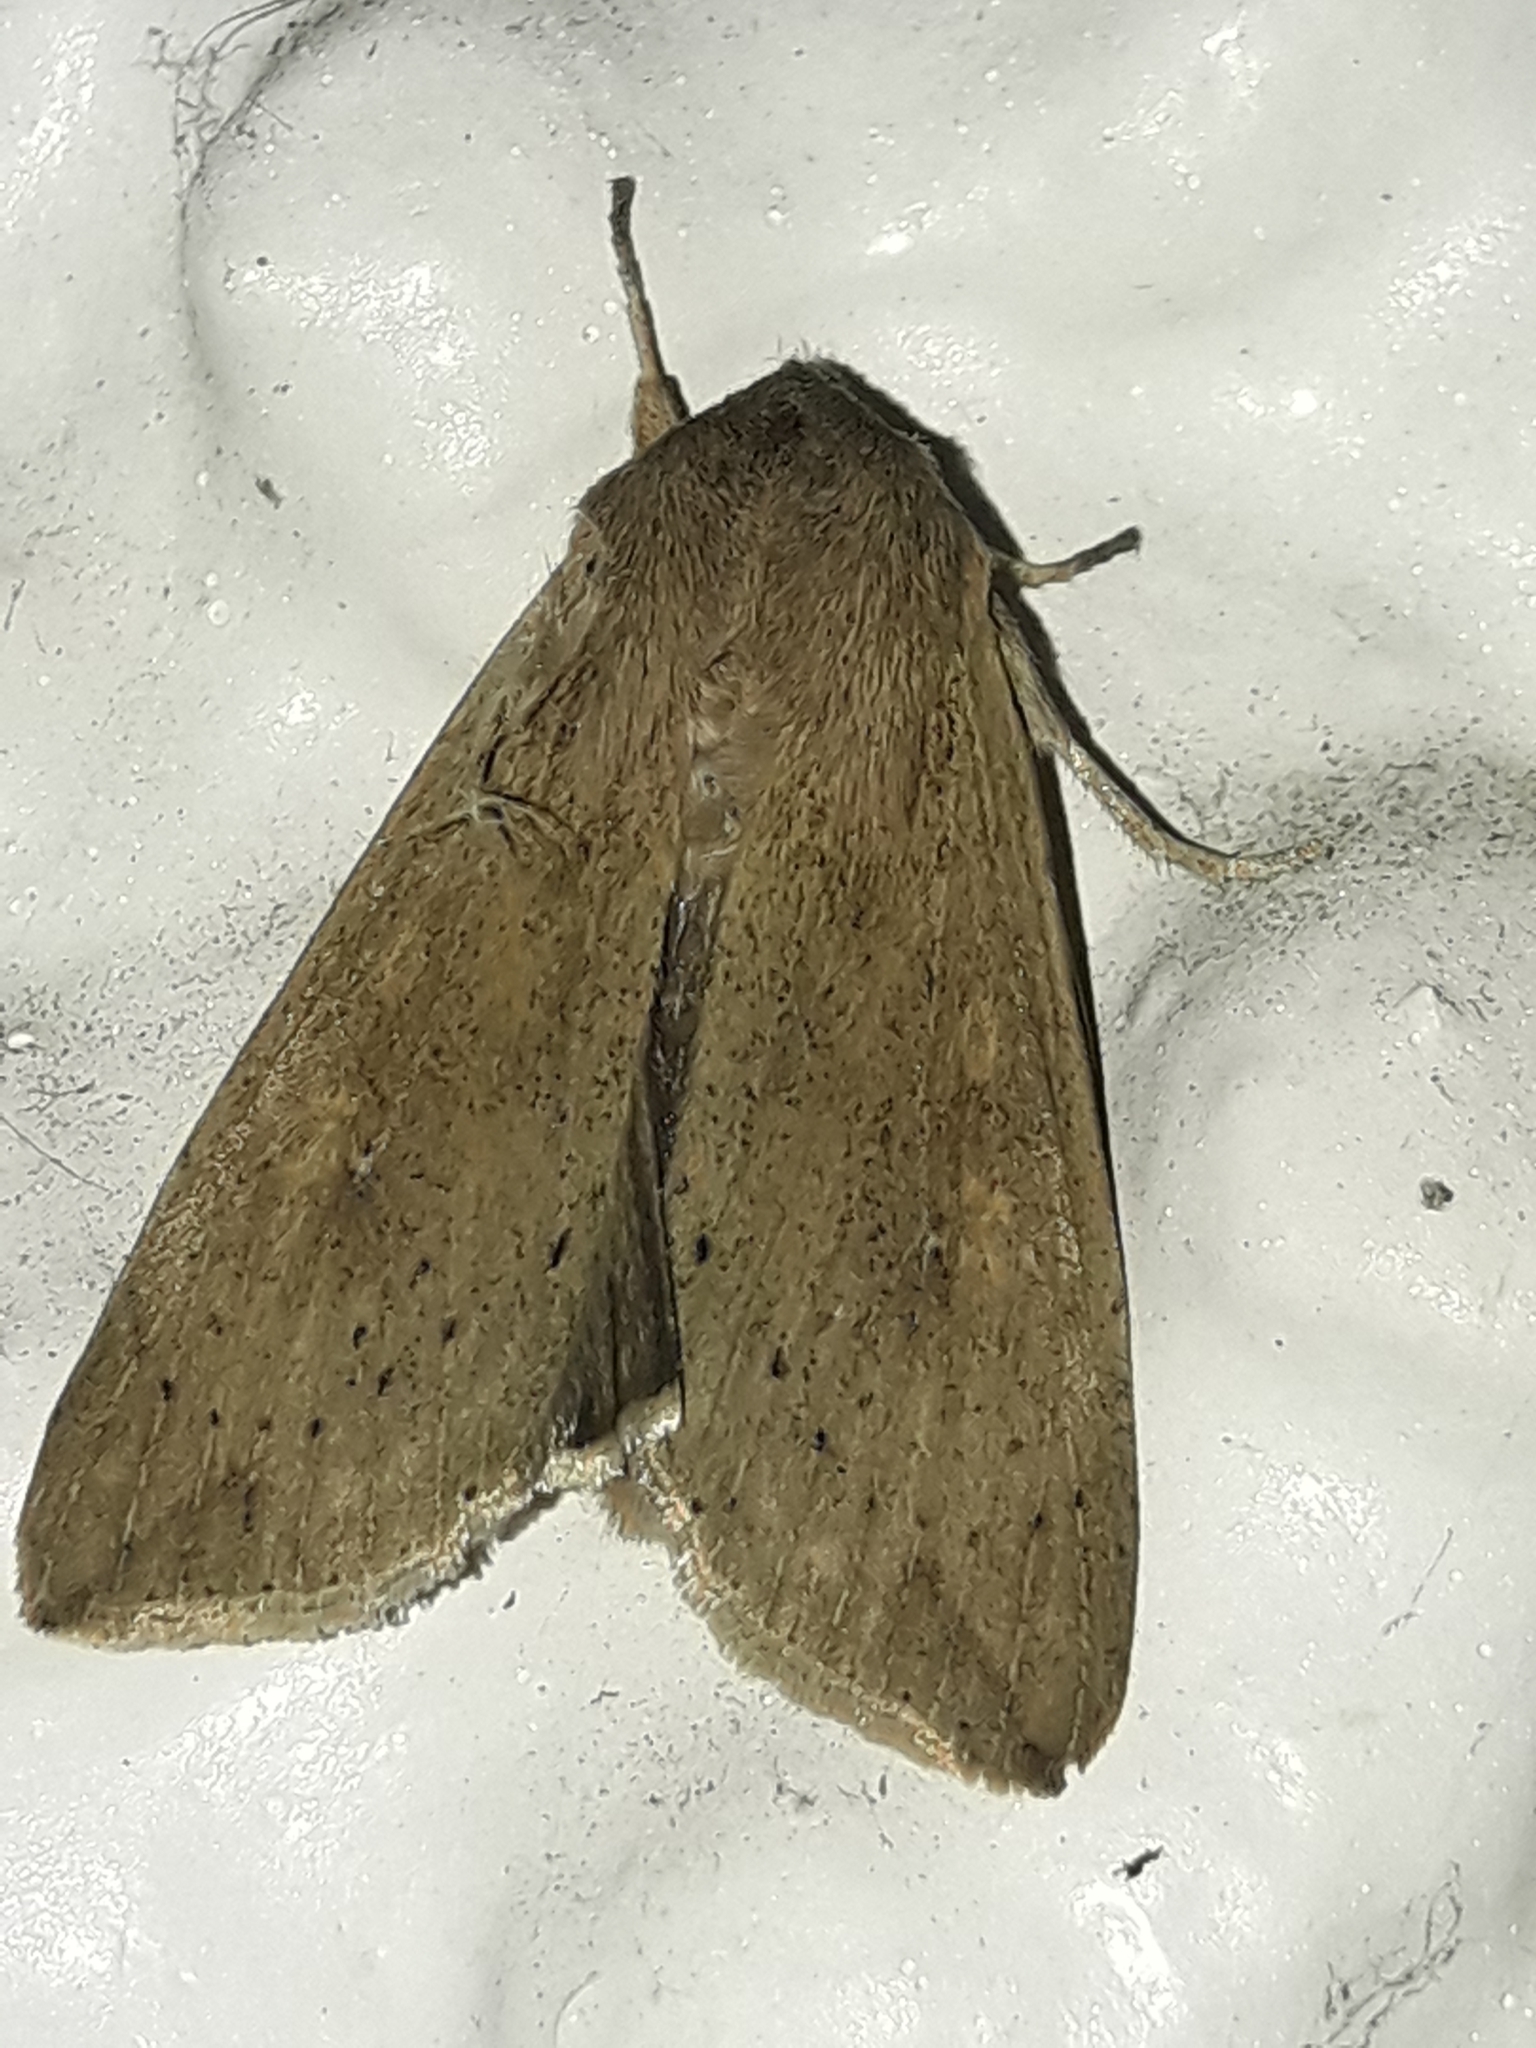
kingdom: Animalia
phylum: Arthropoda
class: Insecta
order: Lepidoptera
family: Noctuidae
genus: Mythimna
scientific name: Mythimna separata
